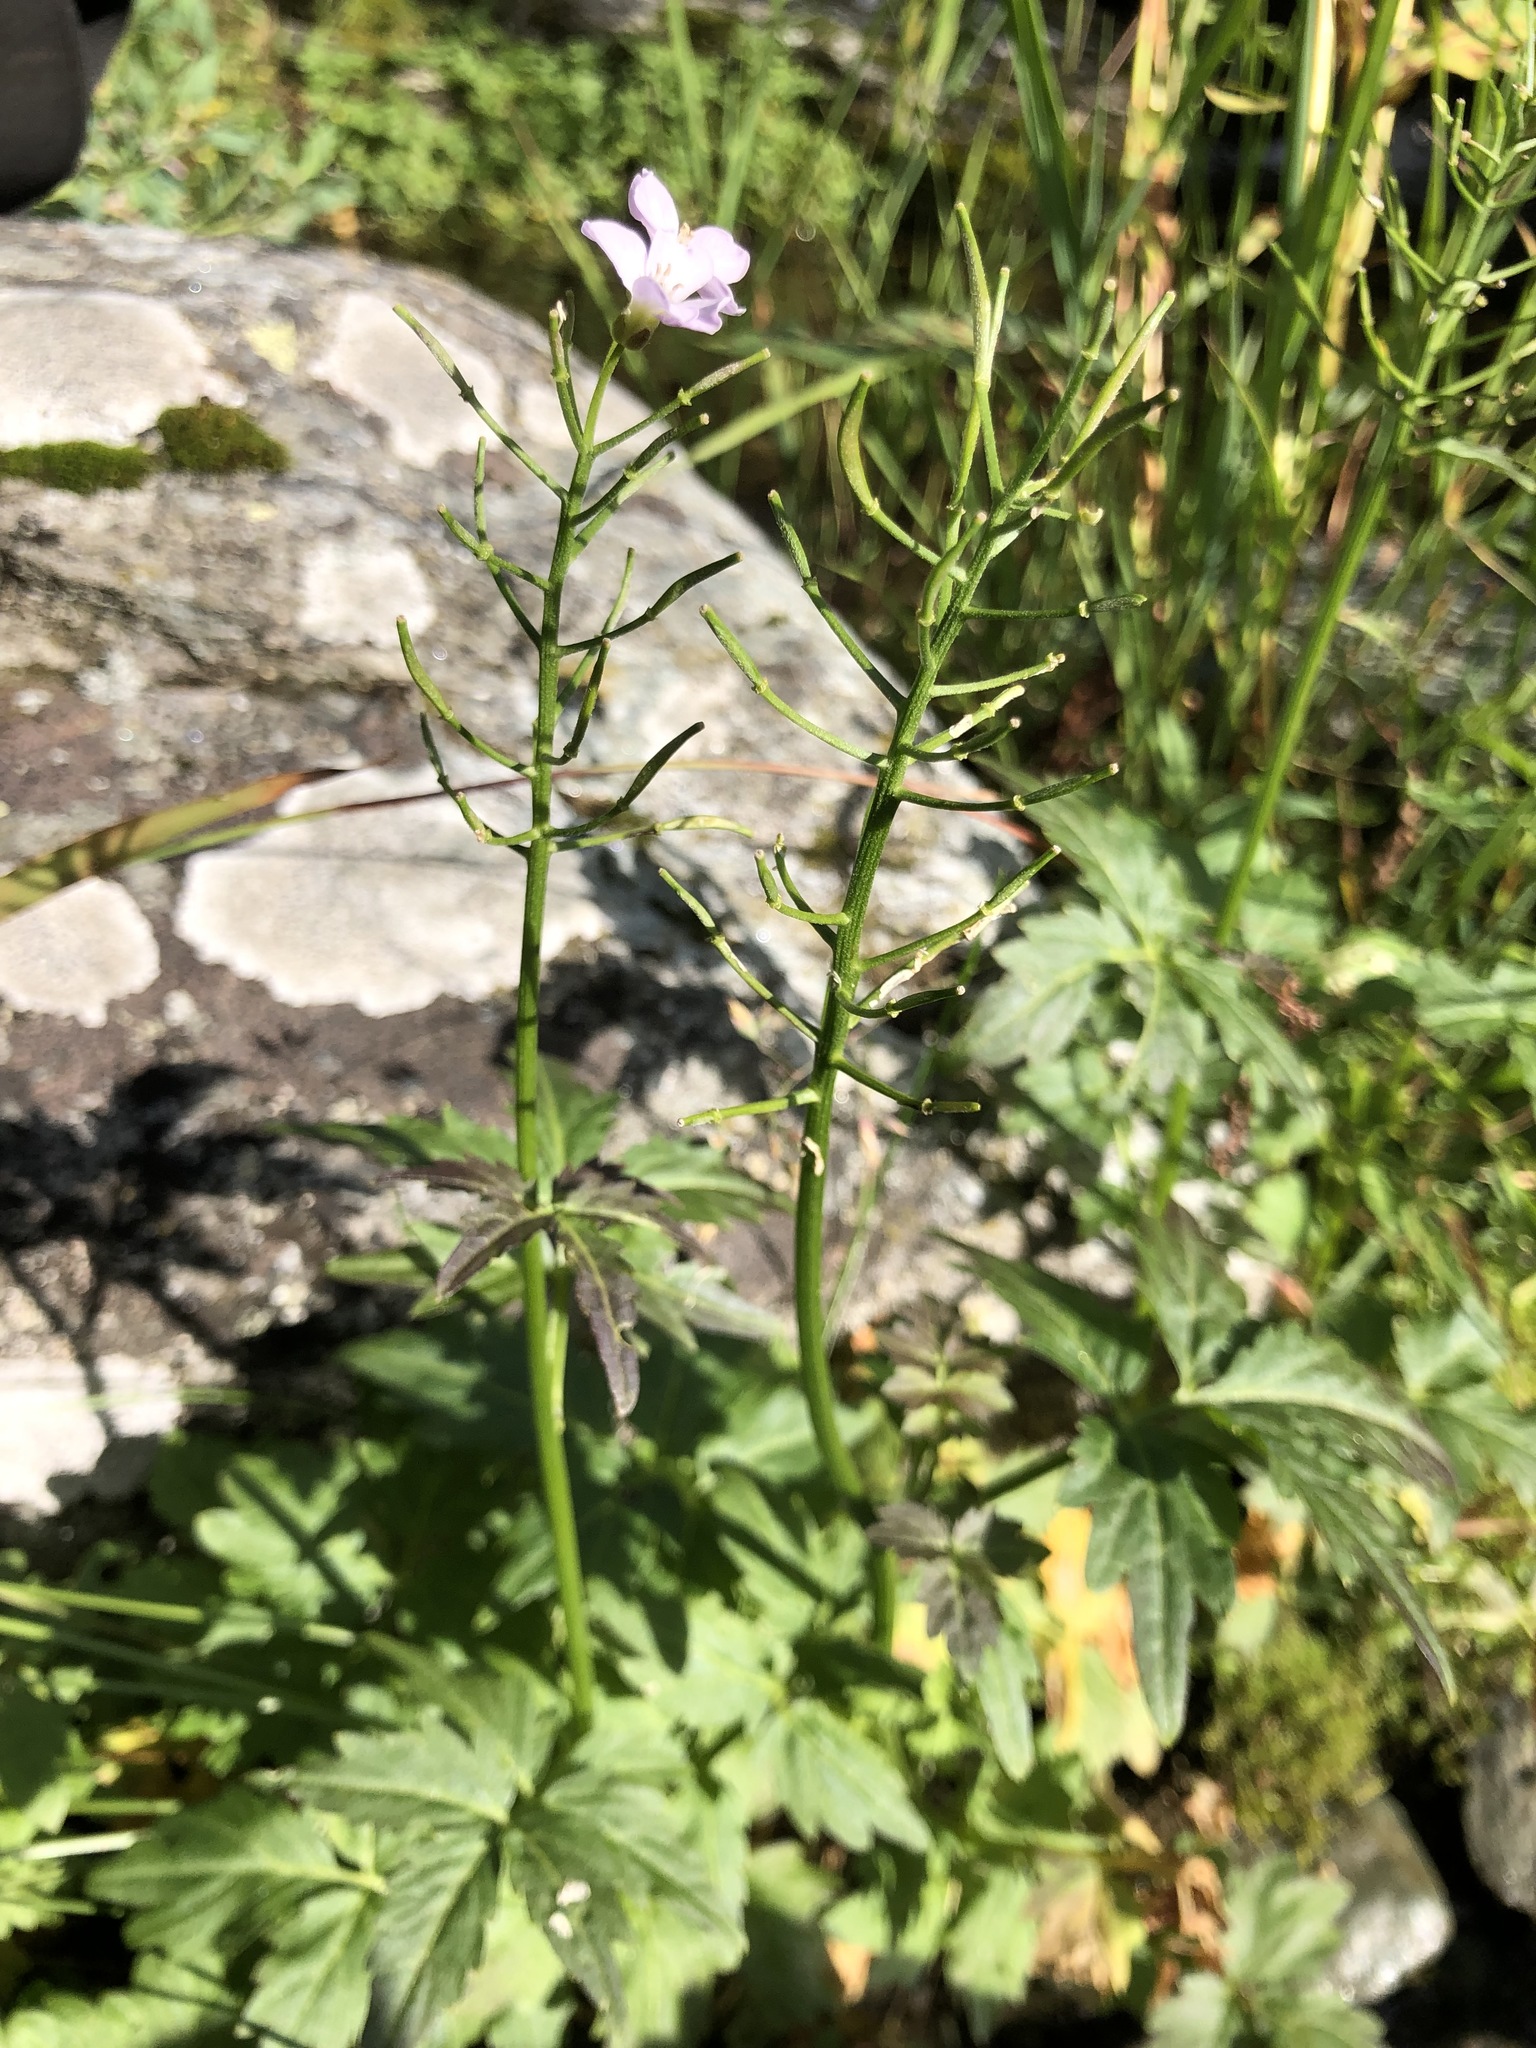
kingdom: Plantae
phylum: Tracheophyta
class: Magnoliopsida
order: Brassicales
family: Brassicaceae
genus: Cardamine
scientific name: Cardamine macrophylla
